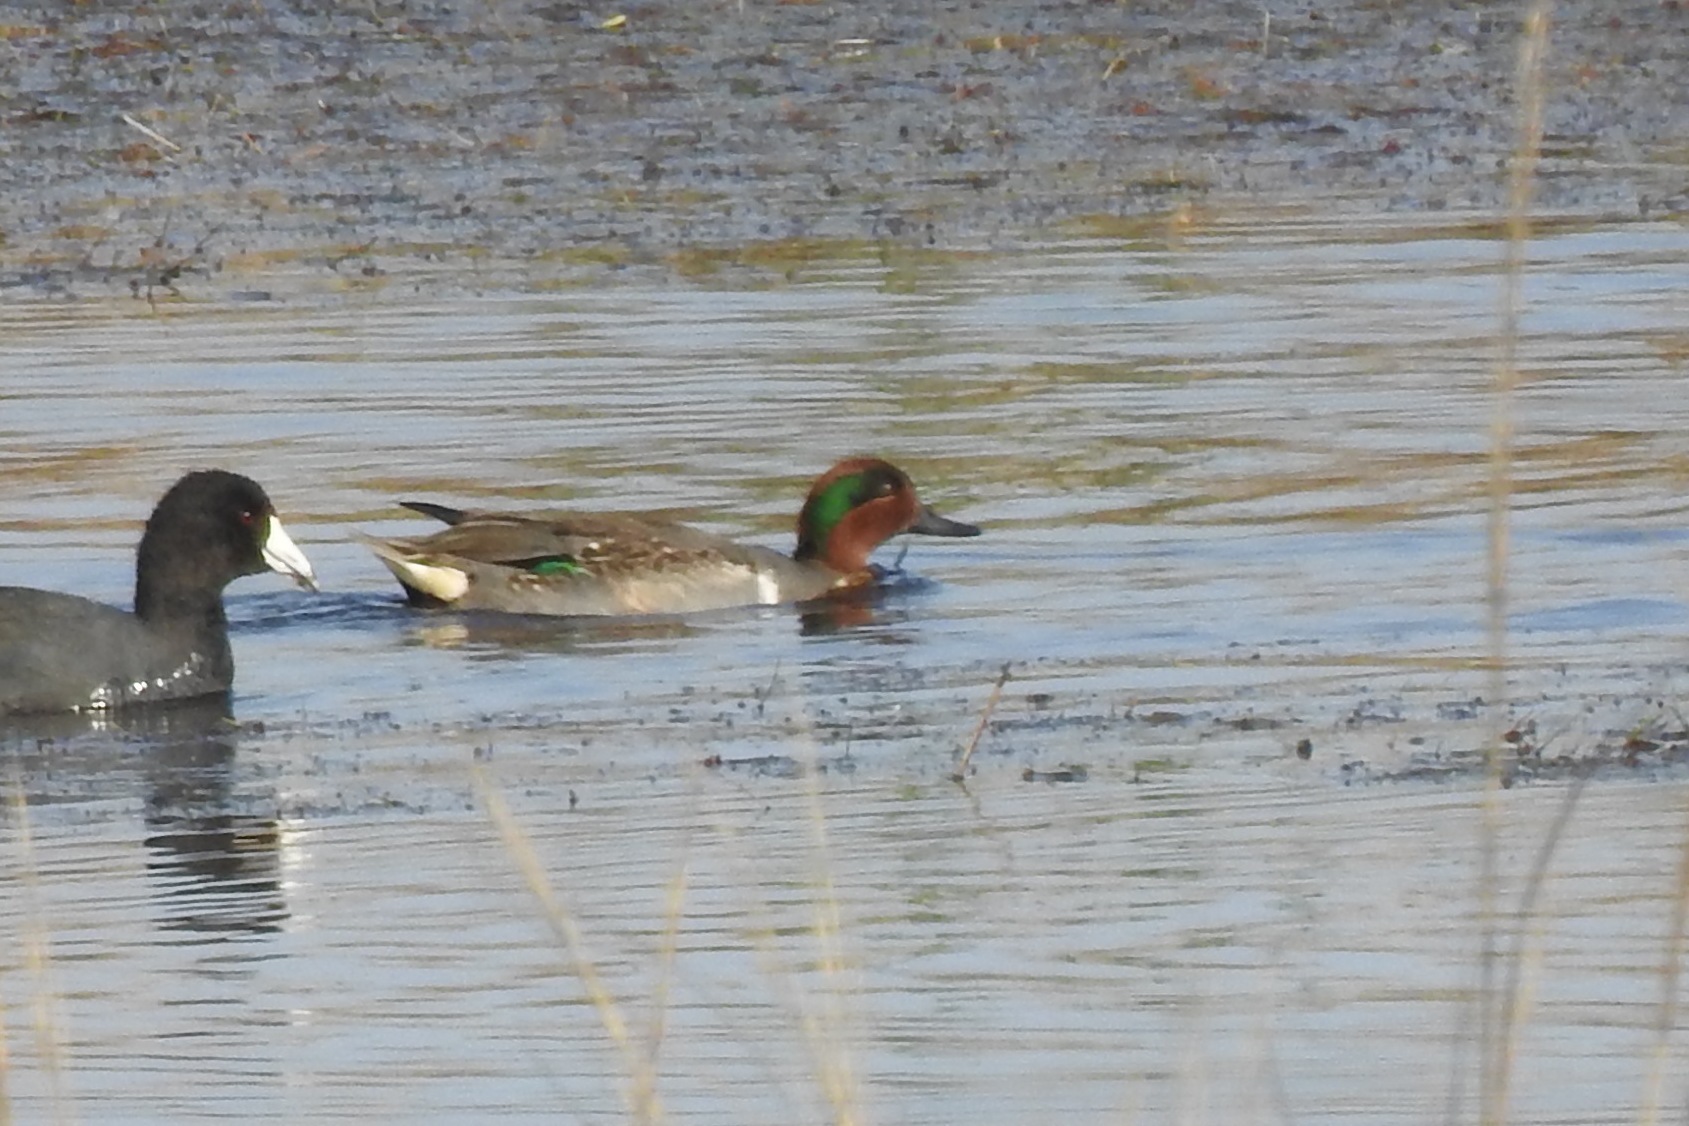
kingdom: Animalia
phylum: Chordata
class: Aves
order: Anseriformes
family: Anatidae
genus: Anas
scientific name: Anas crecca
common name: Eurasian teal
